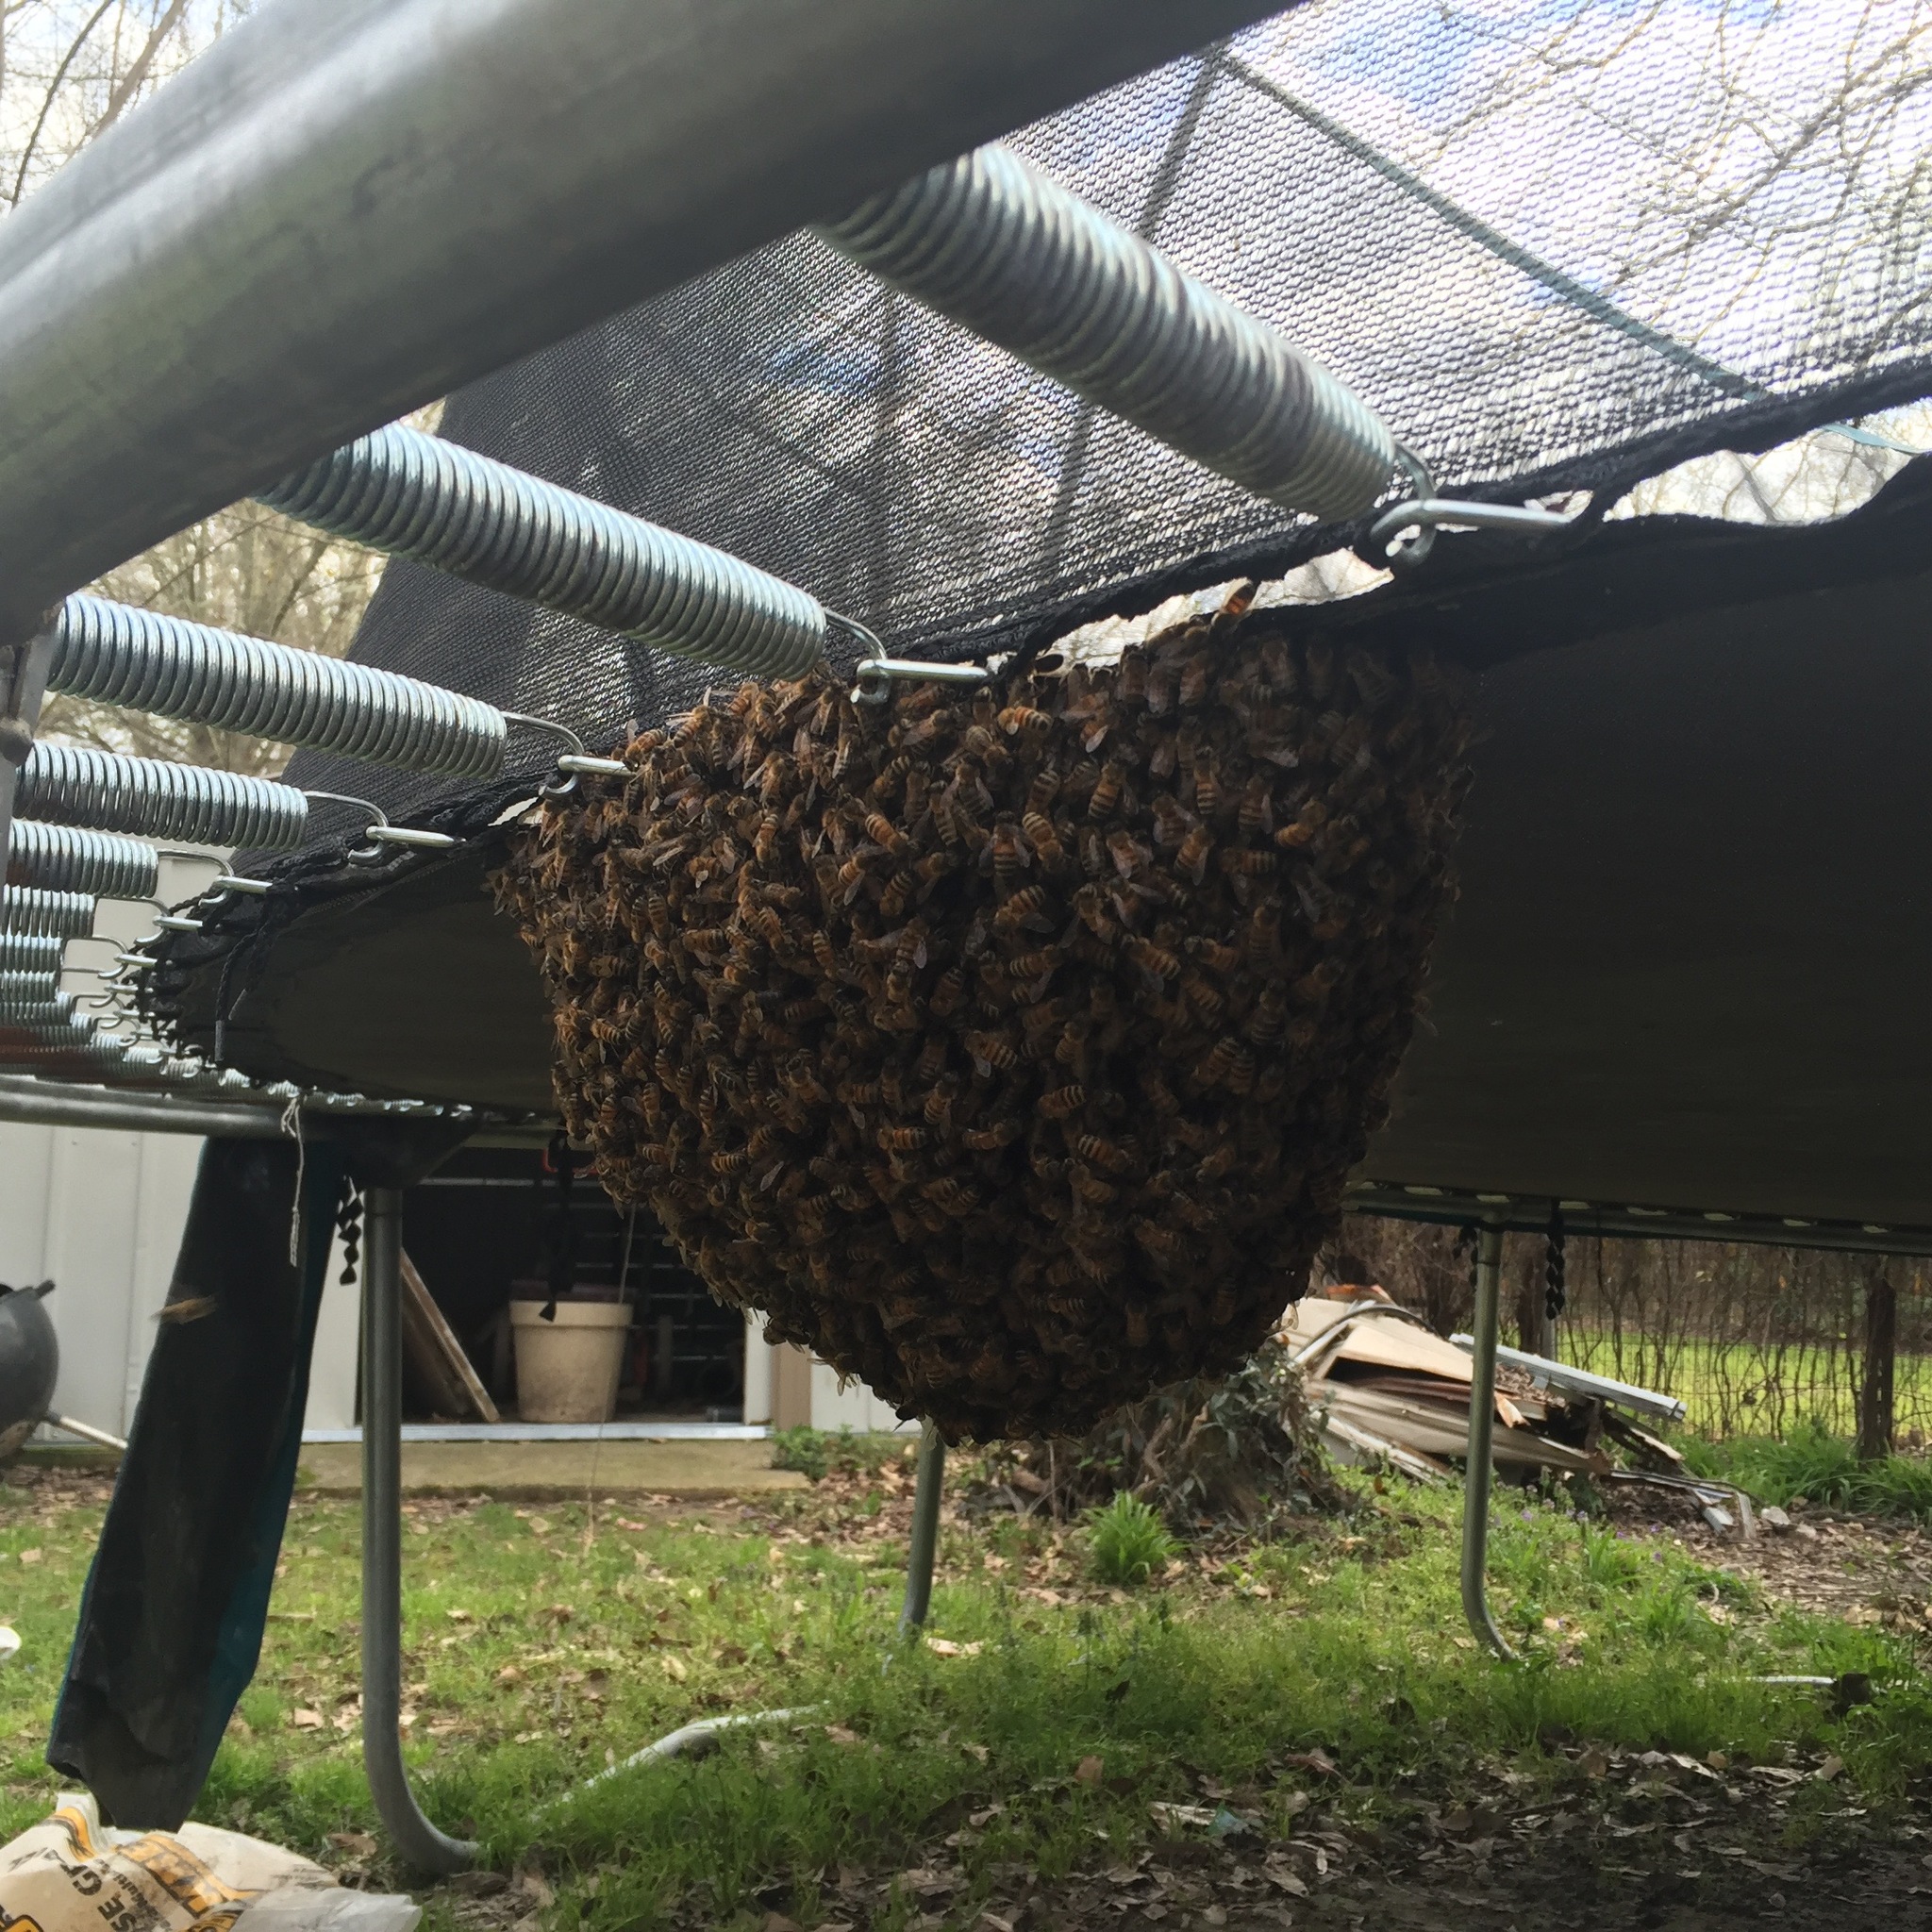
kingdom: Animalia
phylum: Arthropoda
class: Insecta
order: Hymenoptera
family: Apidae
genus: Apis
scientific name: Apis mellifera
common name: Honey bee
